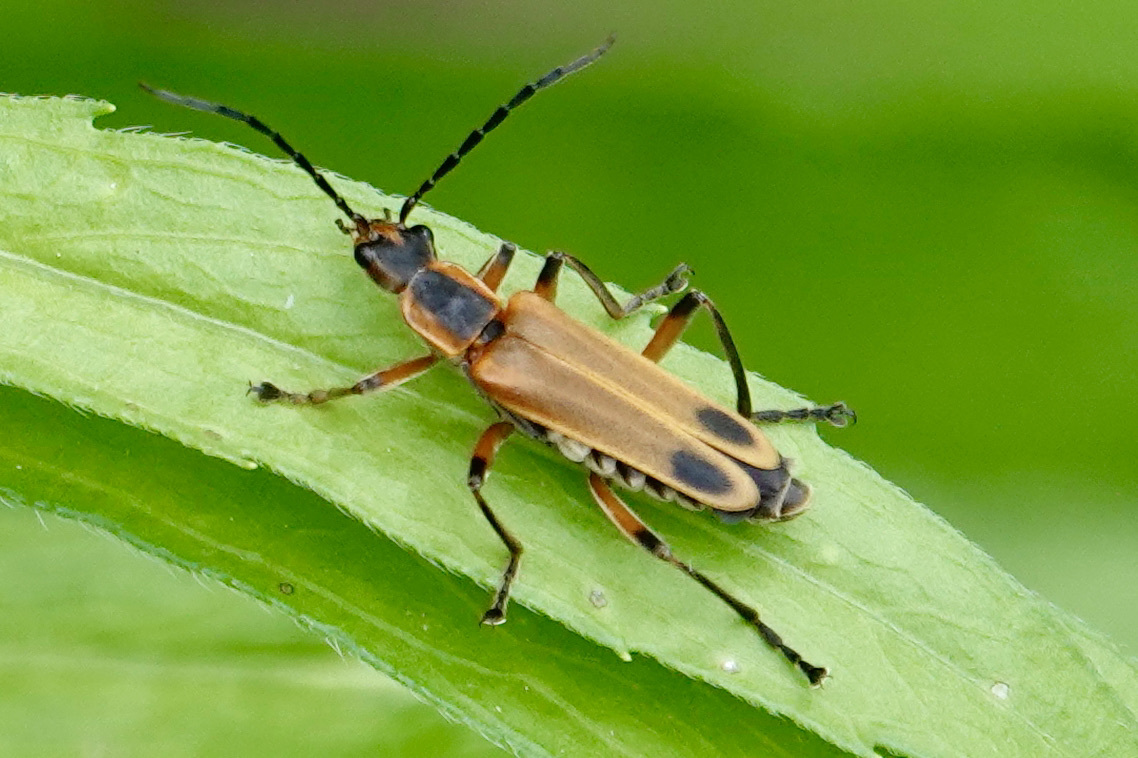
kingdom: Animalia
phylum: Arthropoda
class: Insecta
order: Coleoptera
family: Cantharidae
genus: Chauliognathus
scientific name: Chauliognathus marginatus
